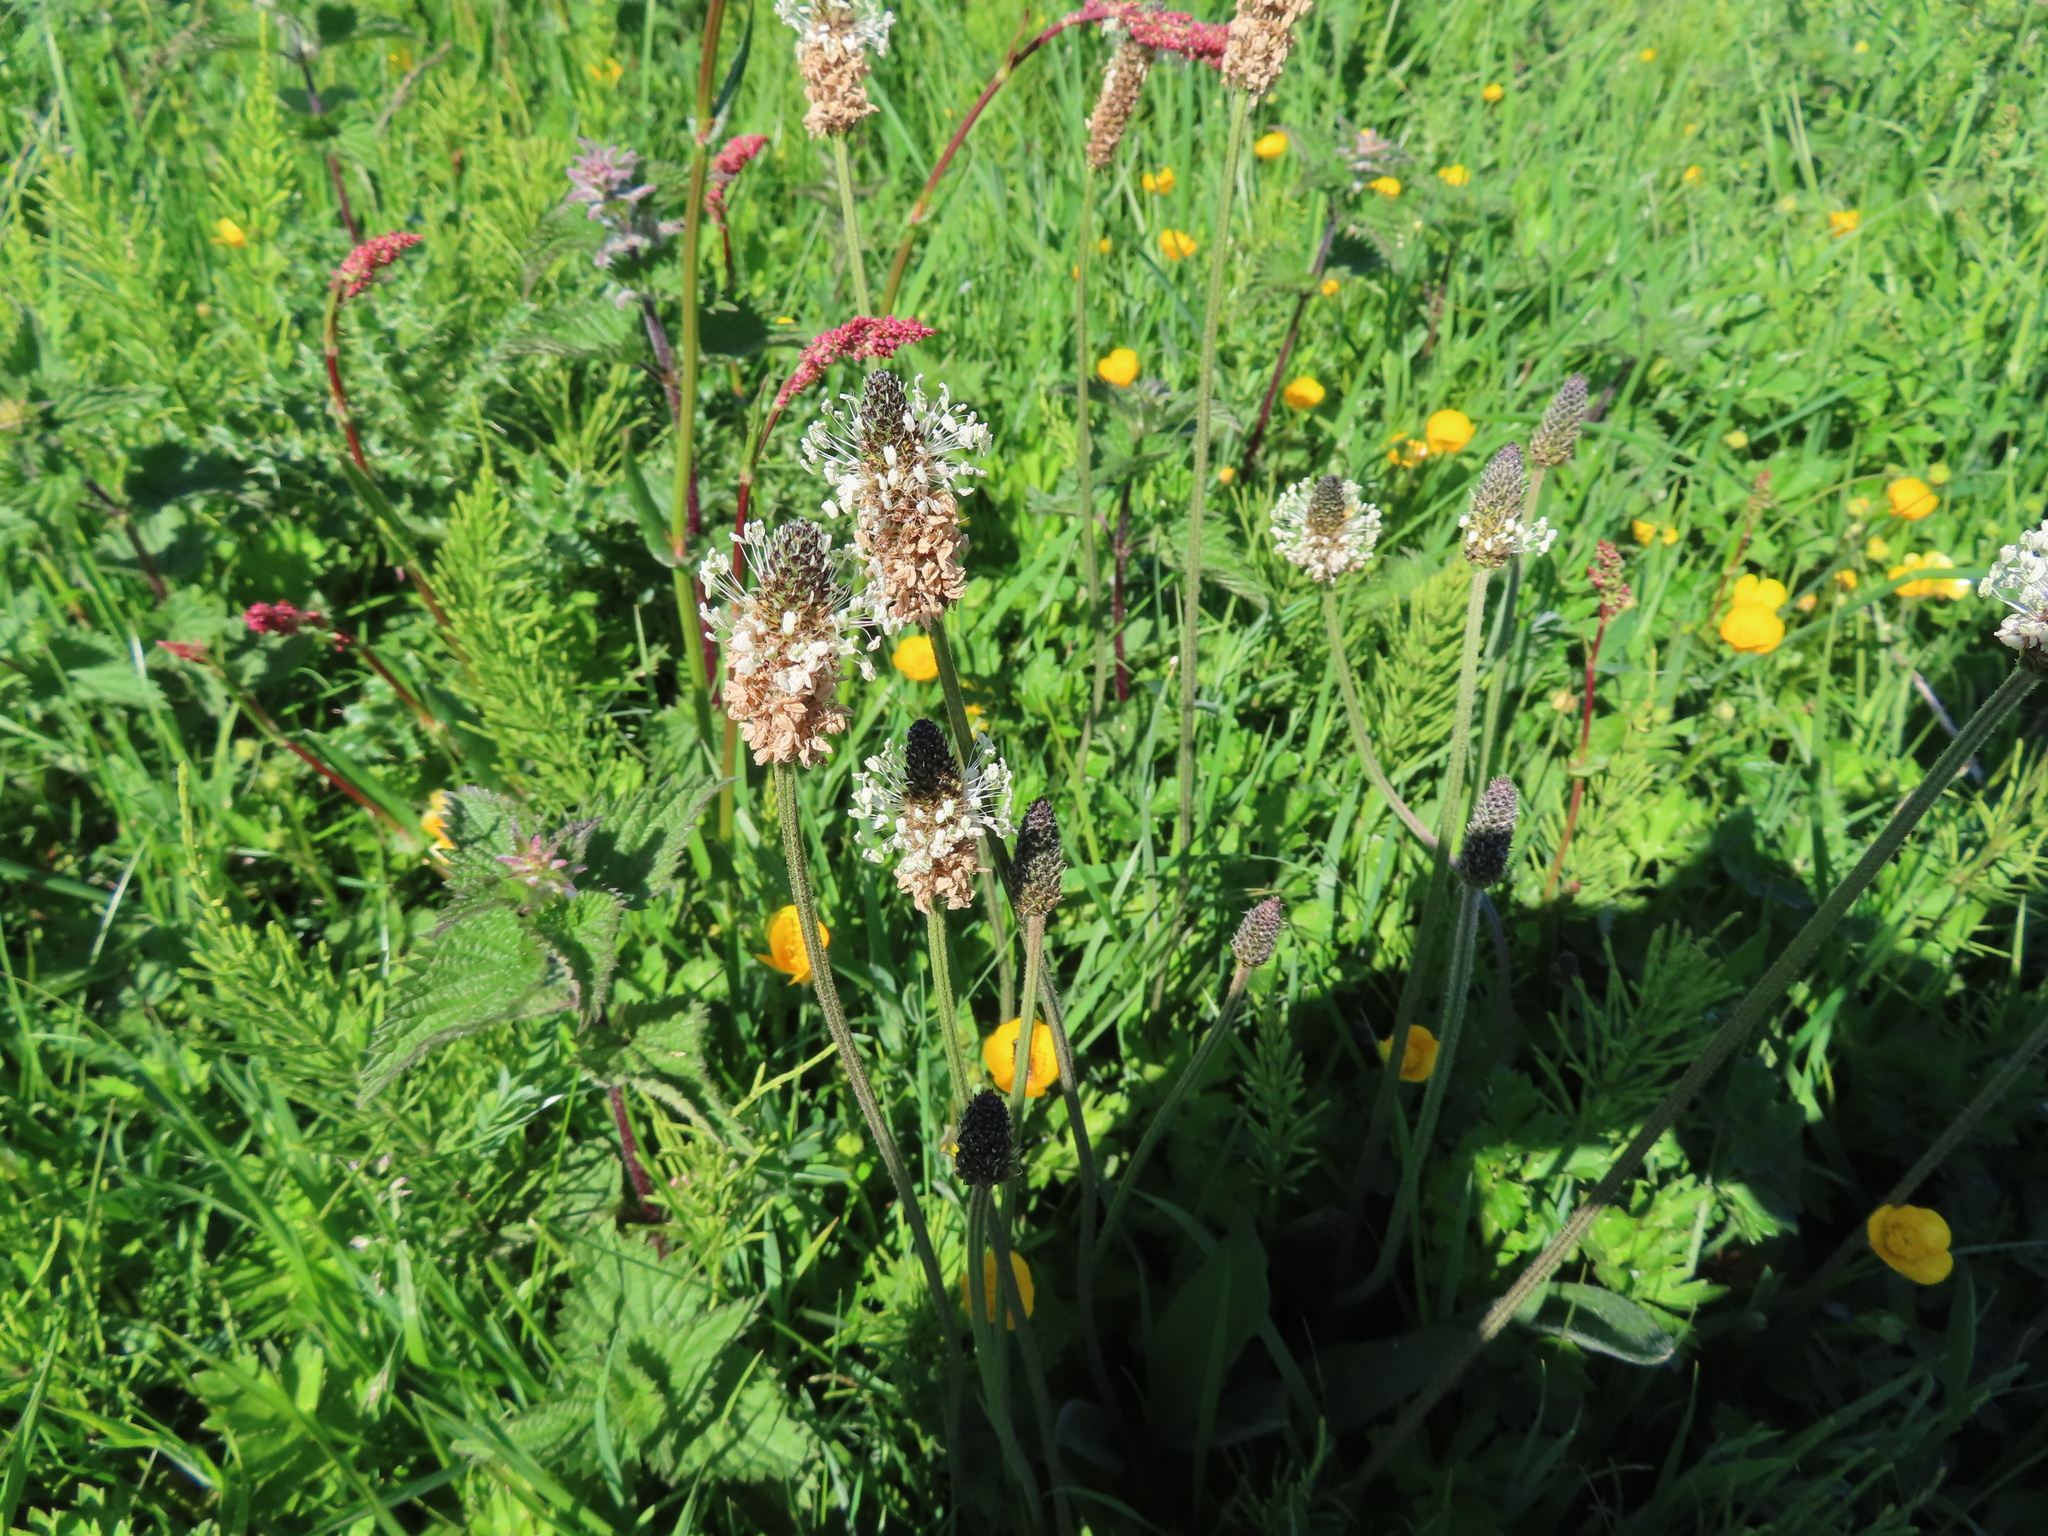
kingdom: Plantae
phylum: Tracheophyta
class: Magnoliopsida
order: Lamiales
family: Plantaginaceae
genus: Plantago
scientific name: Plantago lanceolata
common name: Ribwort plantain
